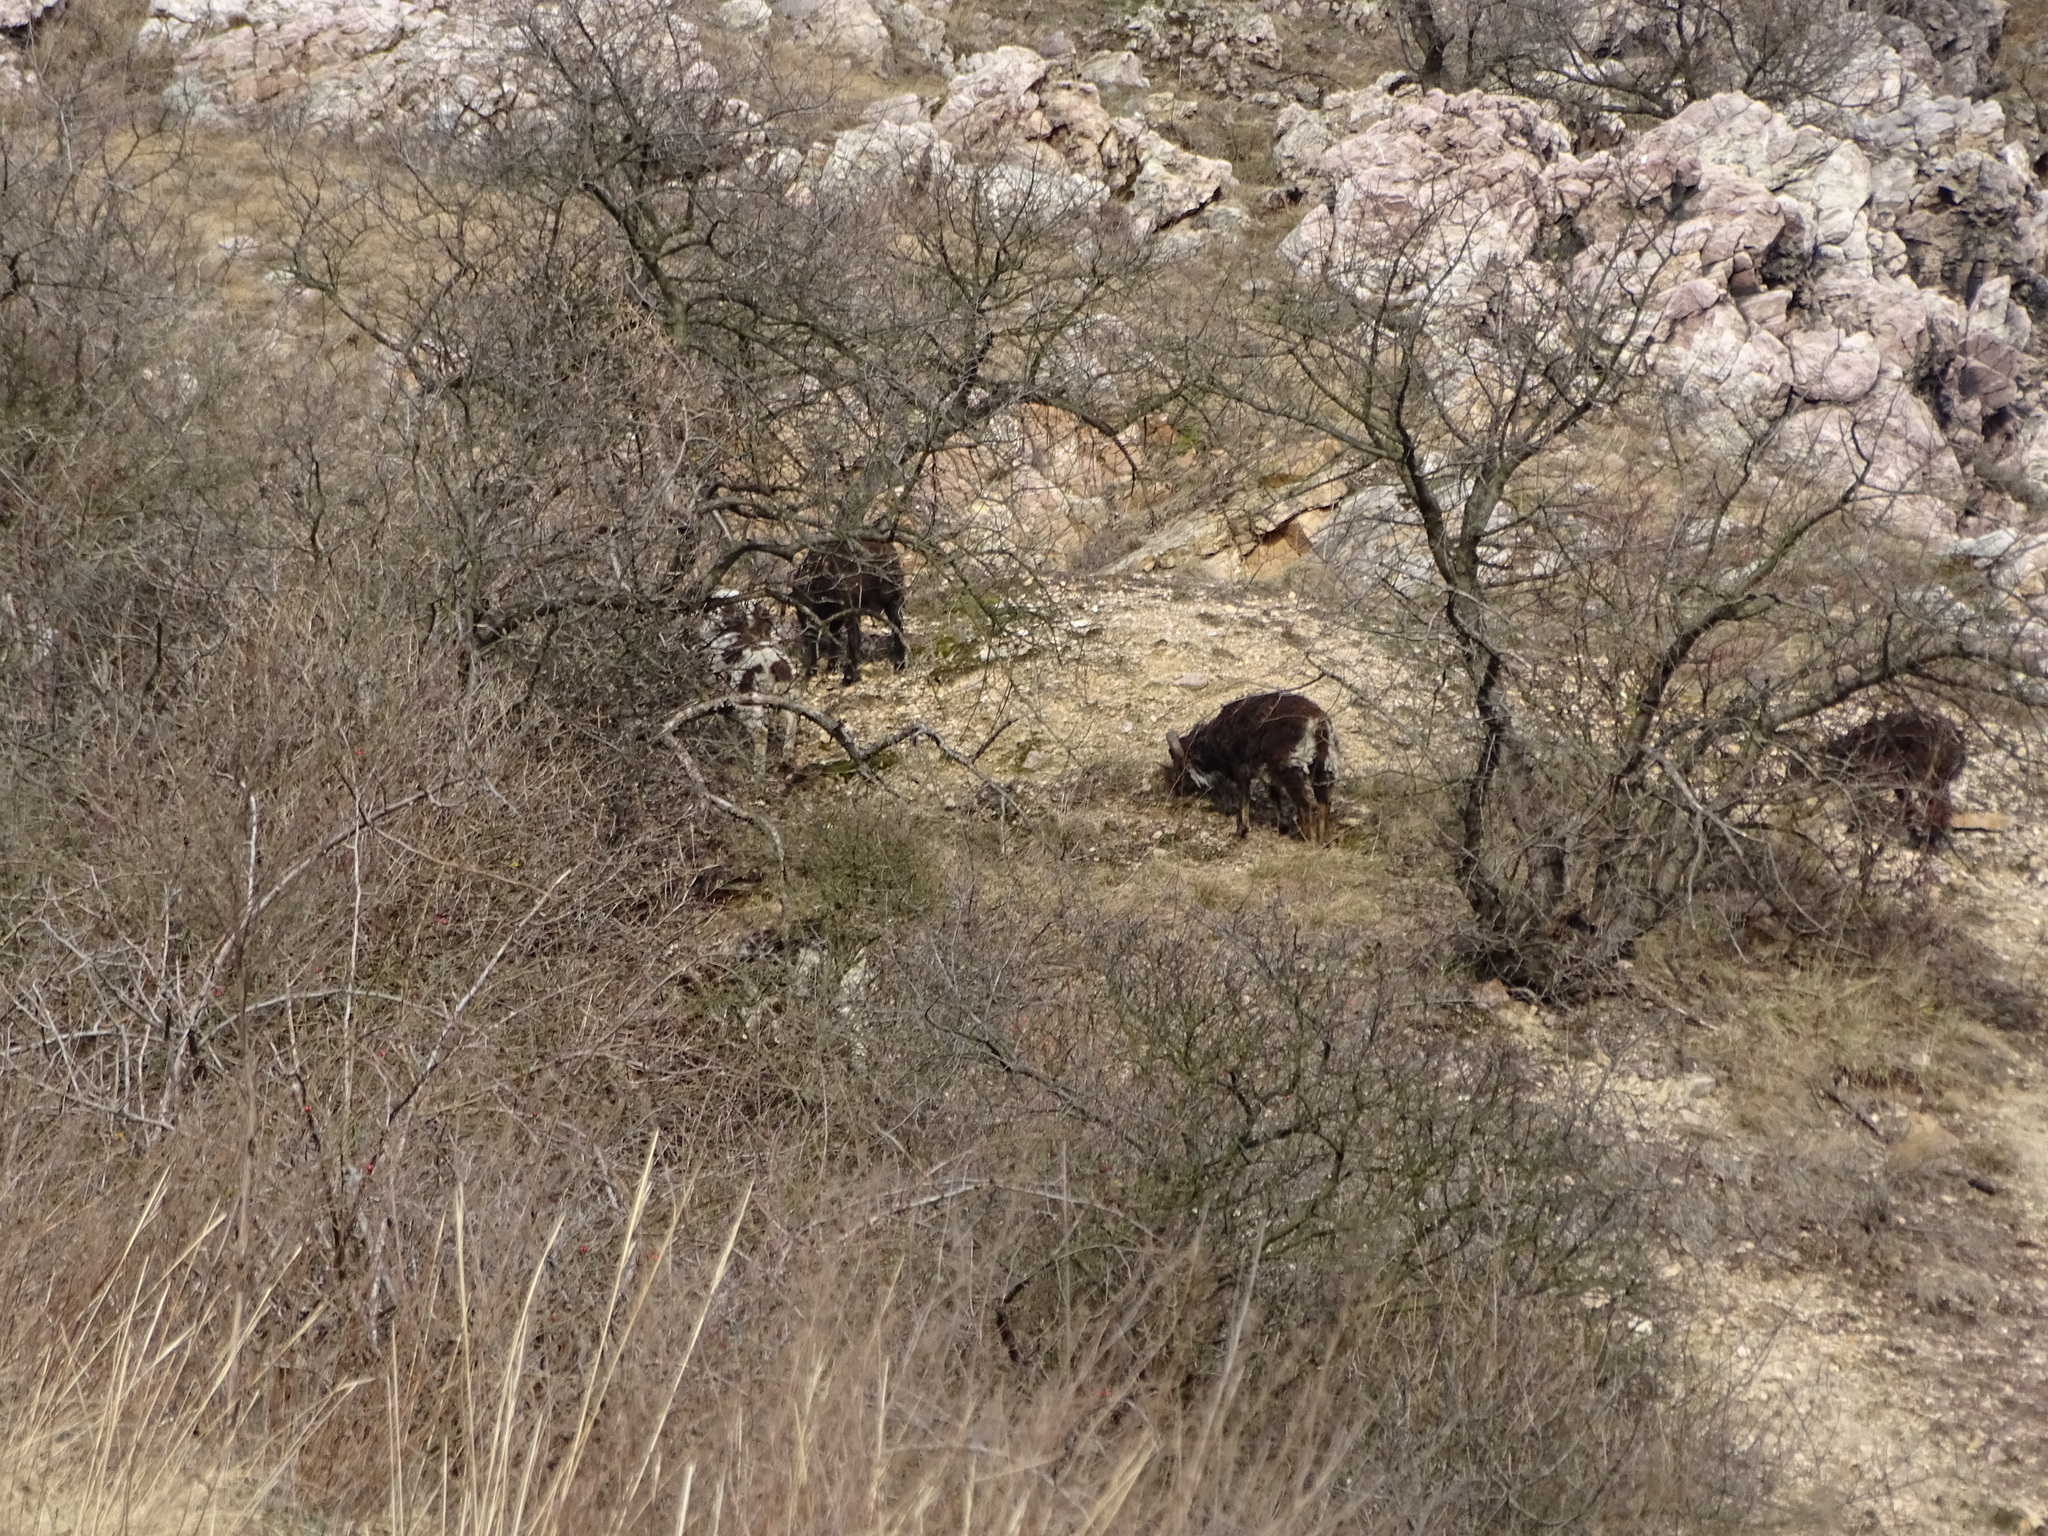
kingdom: Animalia
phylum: Chordata
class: Mammalia
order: Artiodactyla
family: Bovidae
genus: Ovis
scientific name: Ovis aries
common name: Domestic sheep
